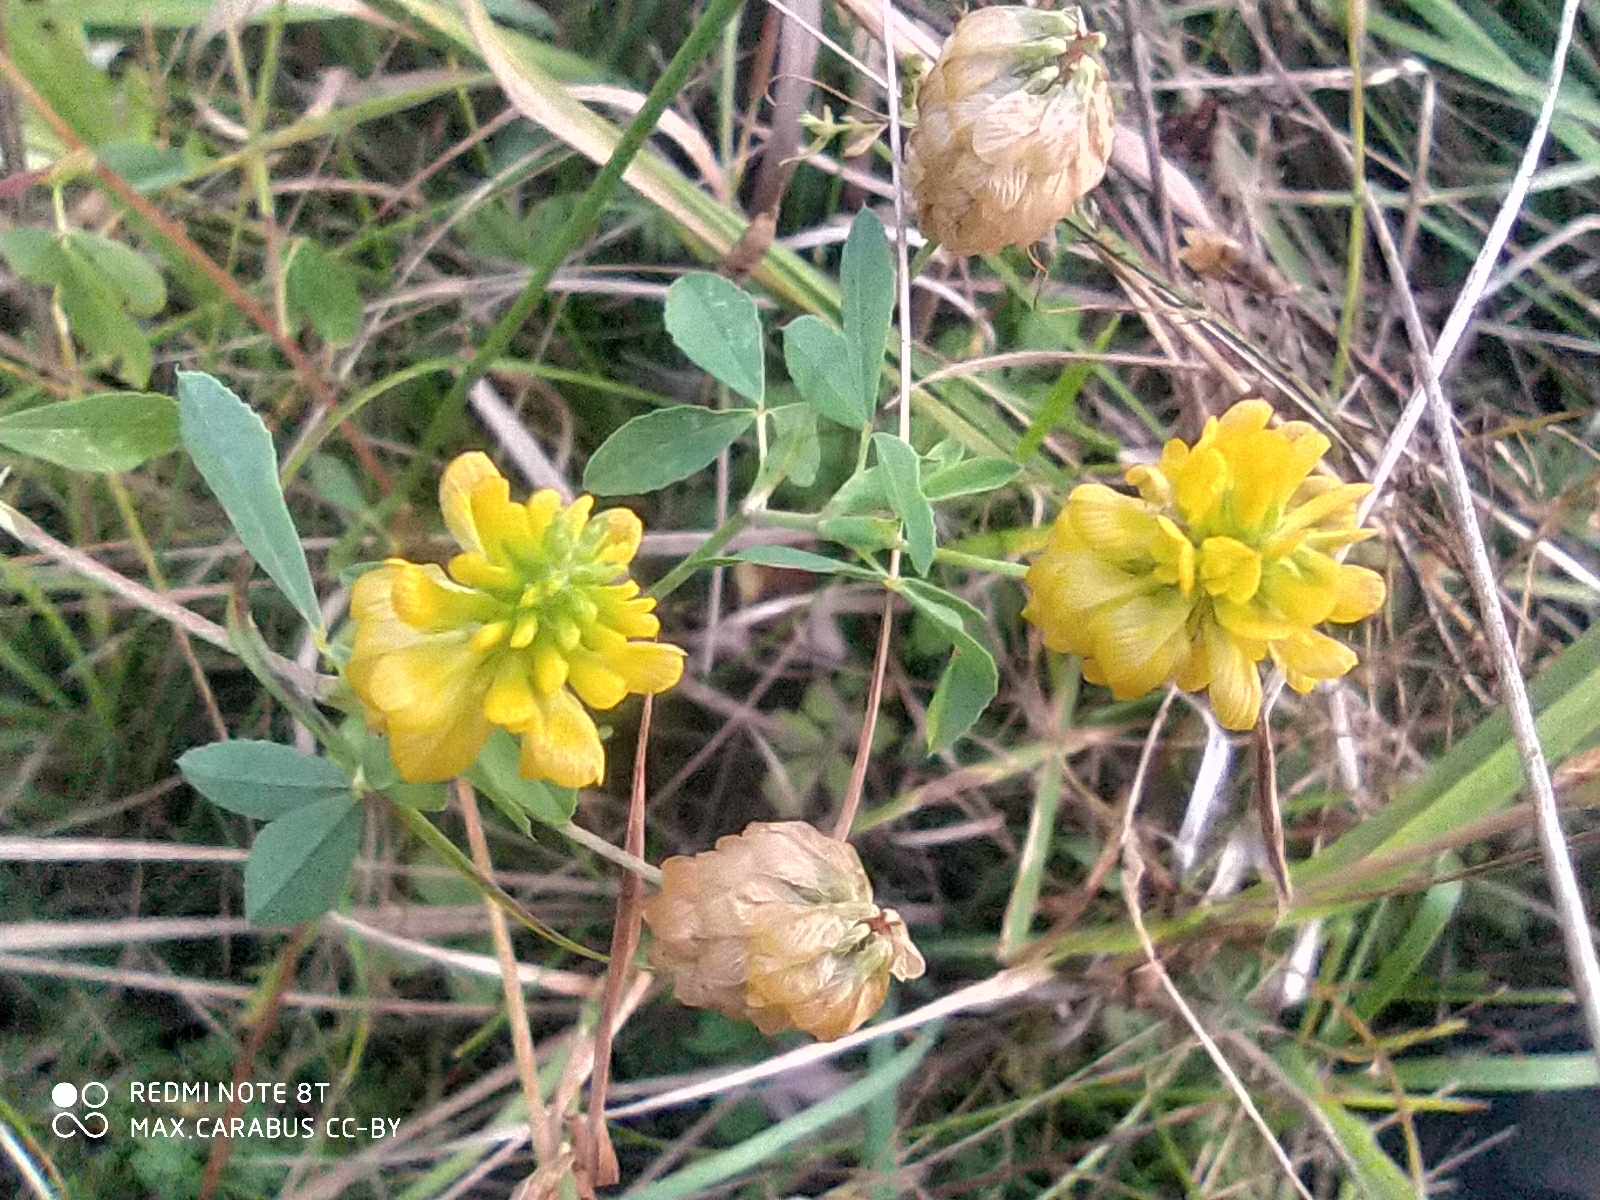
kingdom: Plantae
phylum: Tracheophyta
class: Magnoliopsida
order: Fabales
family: Fabaceae
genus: Trifolium
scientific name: Trifolium aureum
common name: Golden clover
